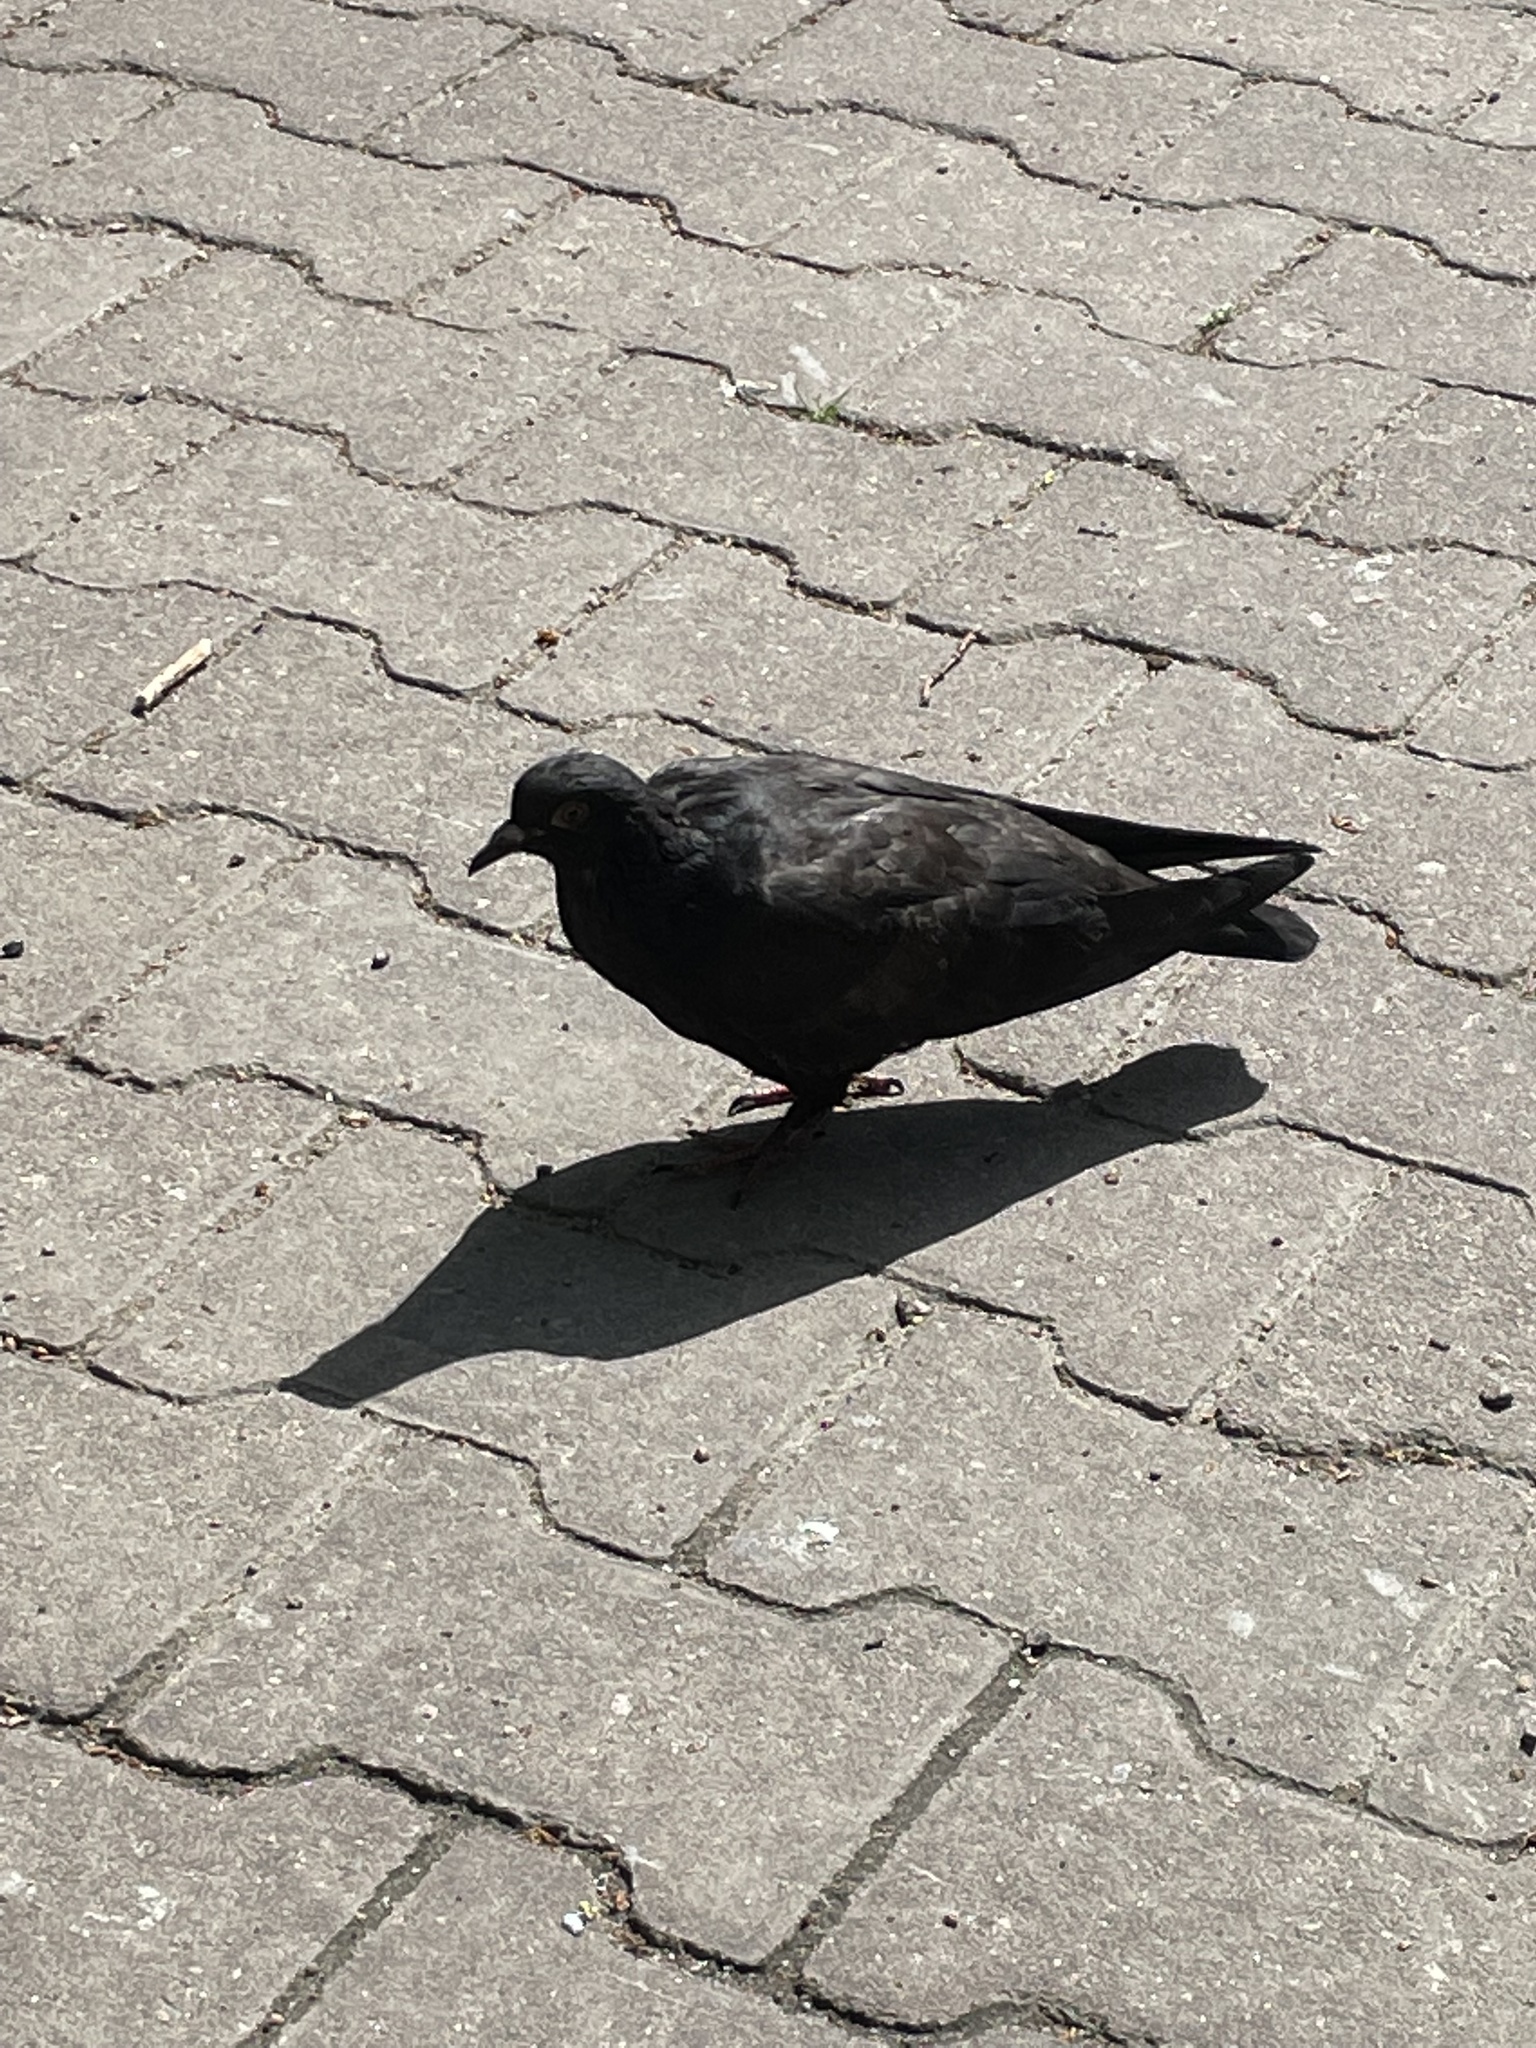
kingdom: Animalia
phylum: Chordata
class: Aves
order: Columbiformes
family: Columbidae
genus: Columba
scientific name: Columba livia
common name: Rock pigeon
